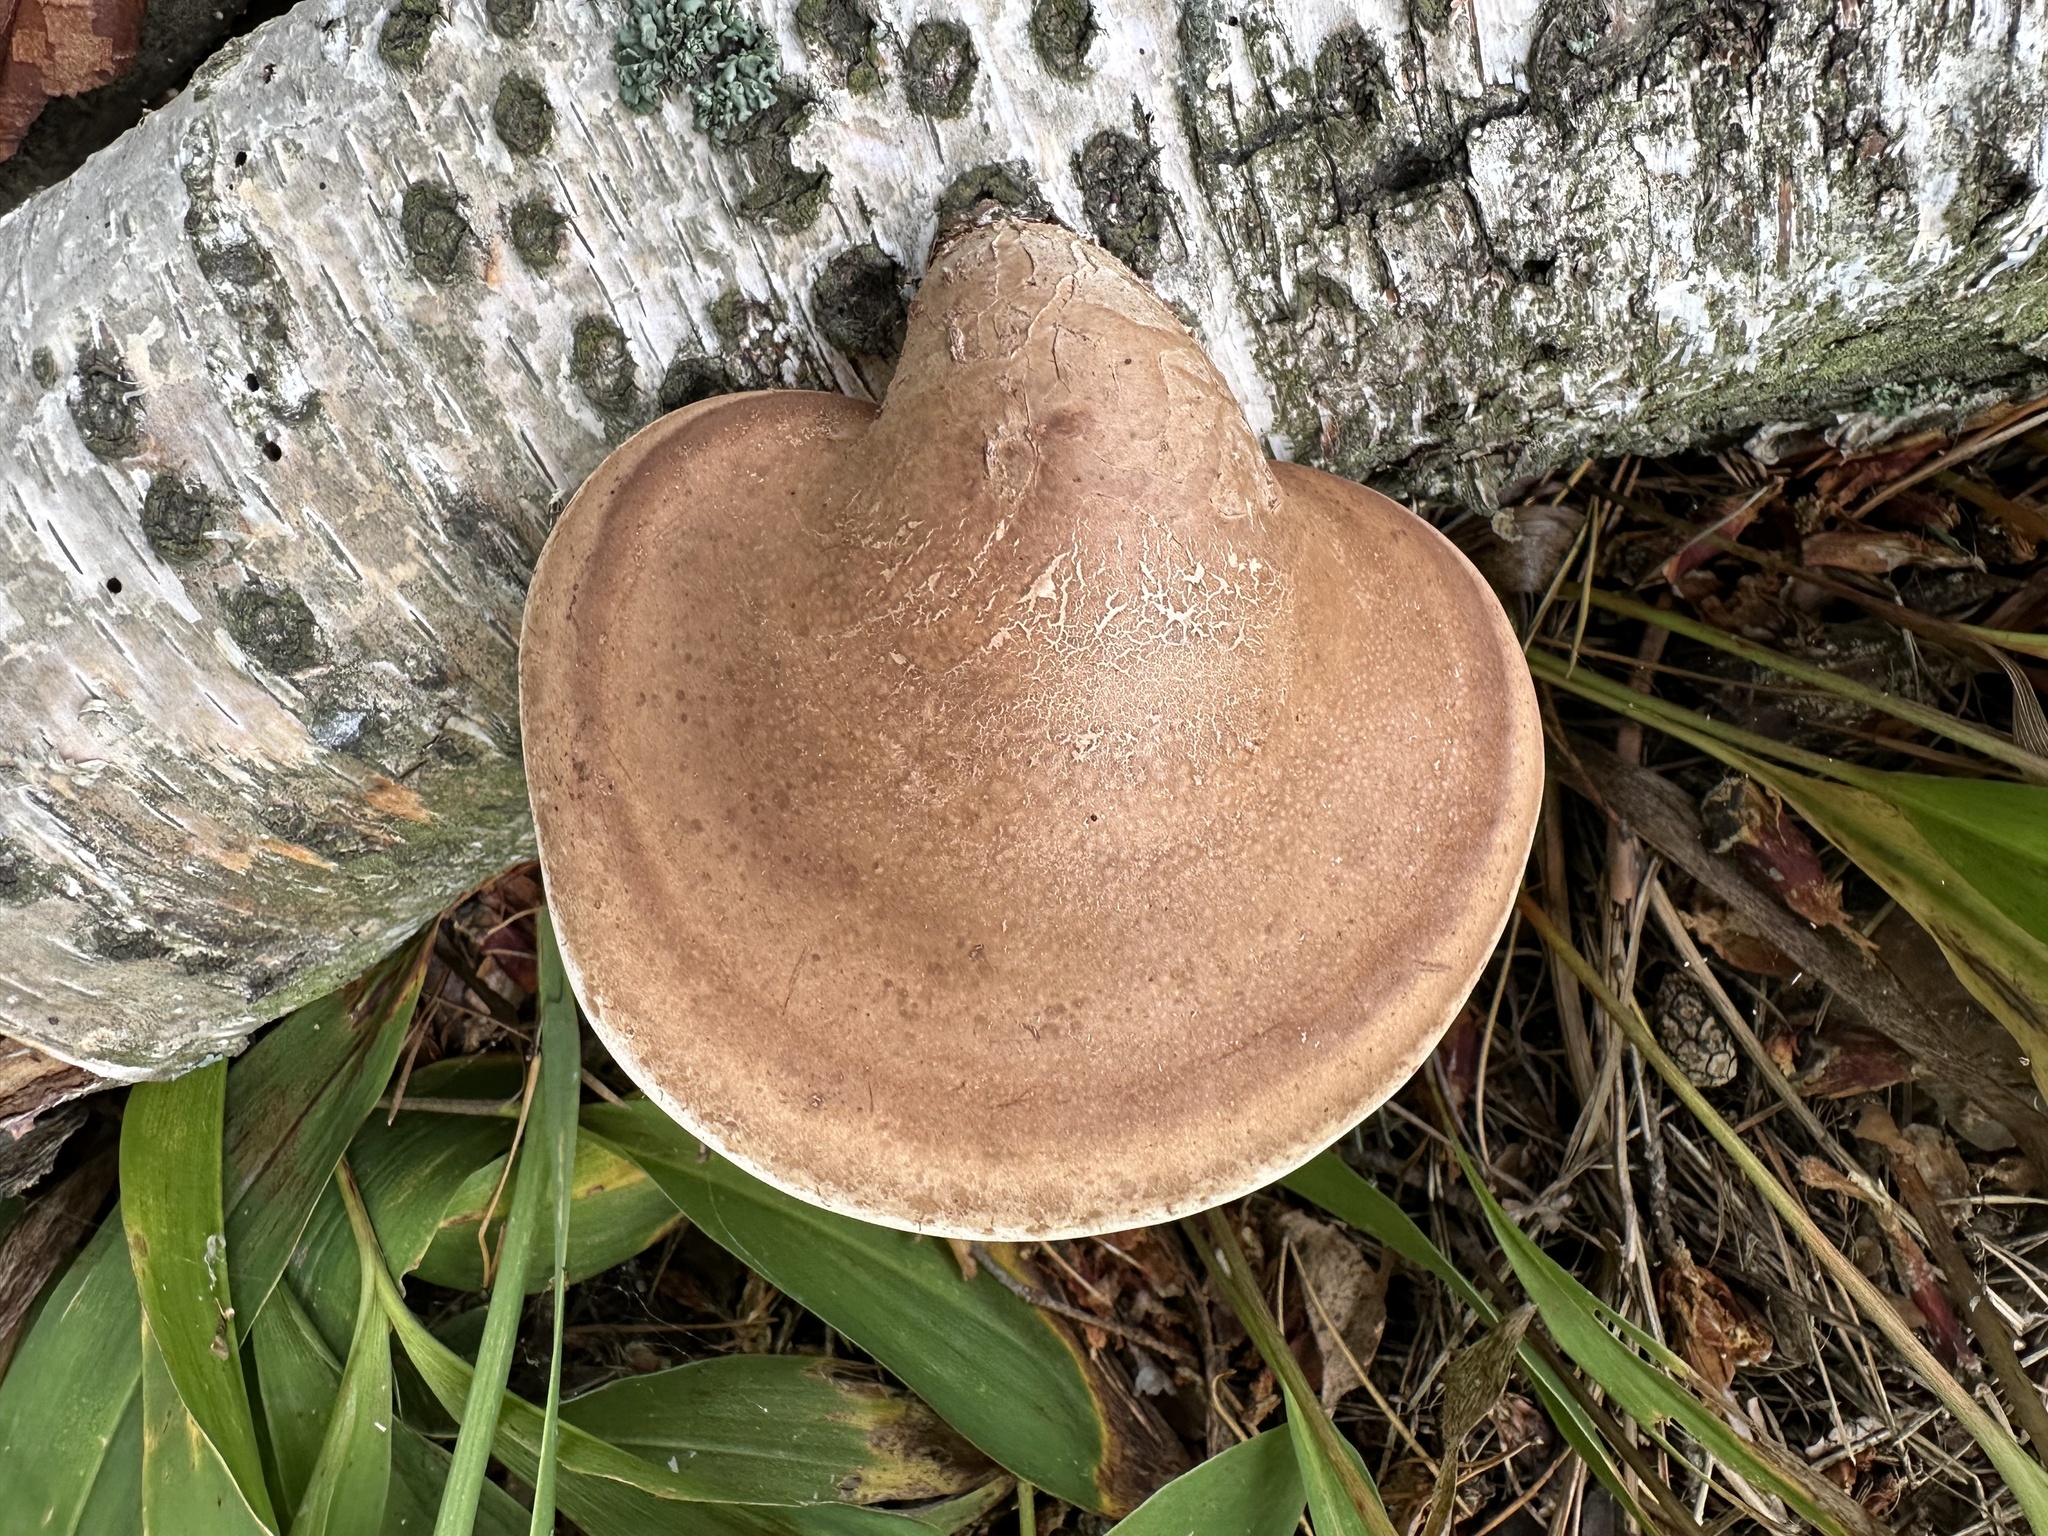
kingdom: Fungi
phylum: Basidiomycota
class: Agaricomycetes
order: Polyporales
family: Fomitopsidaceae
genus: Fomitopsis
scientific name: Fomitopsis betulina
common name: Birch polypore
